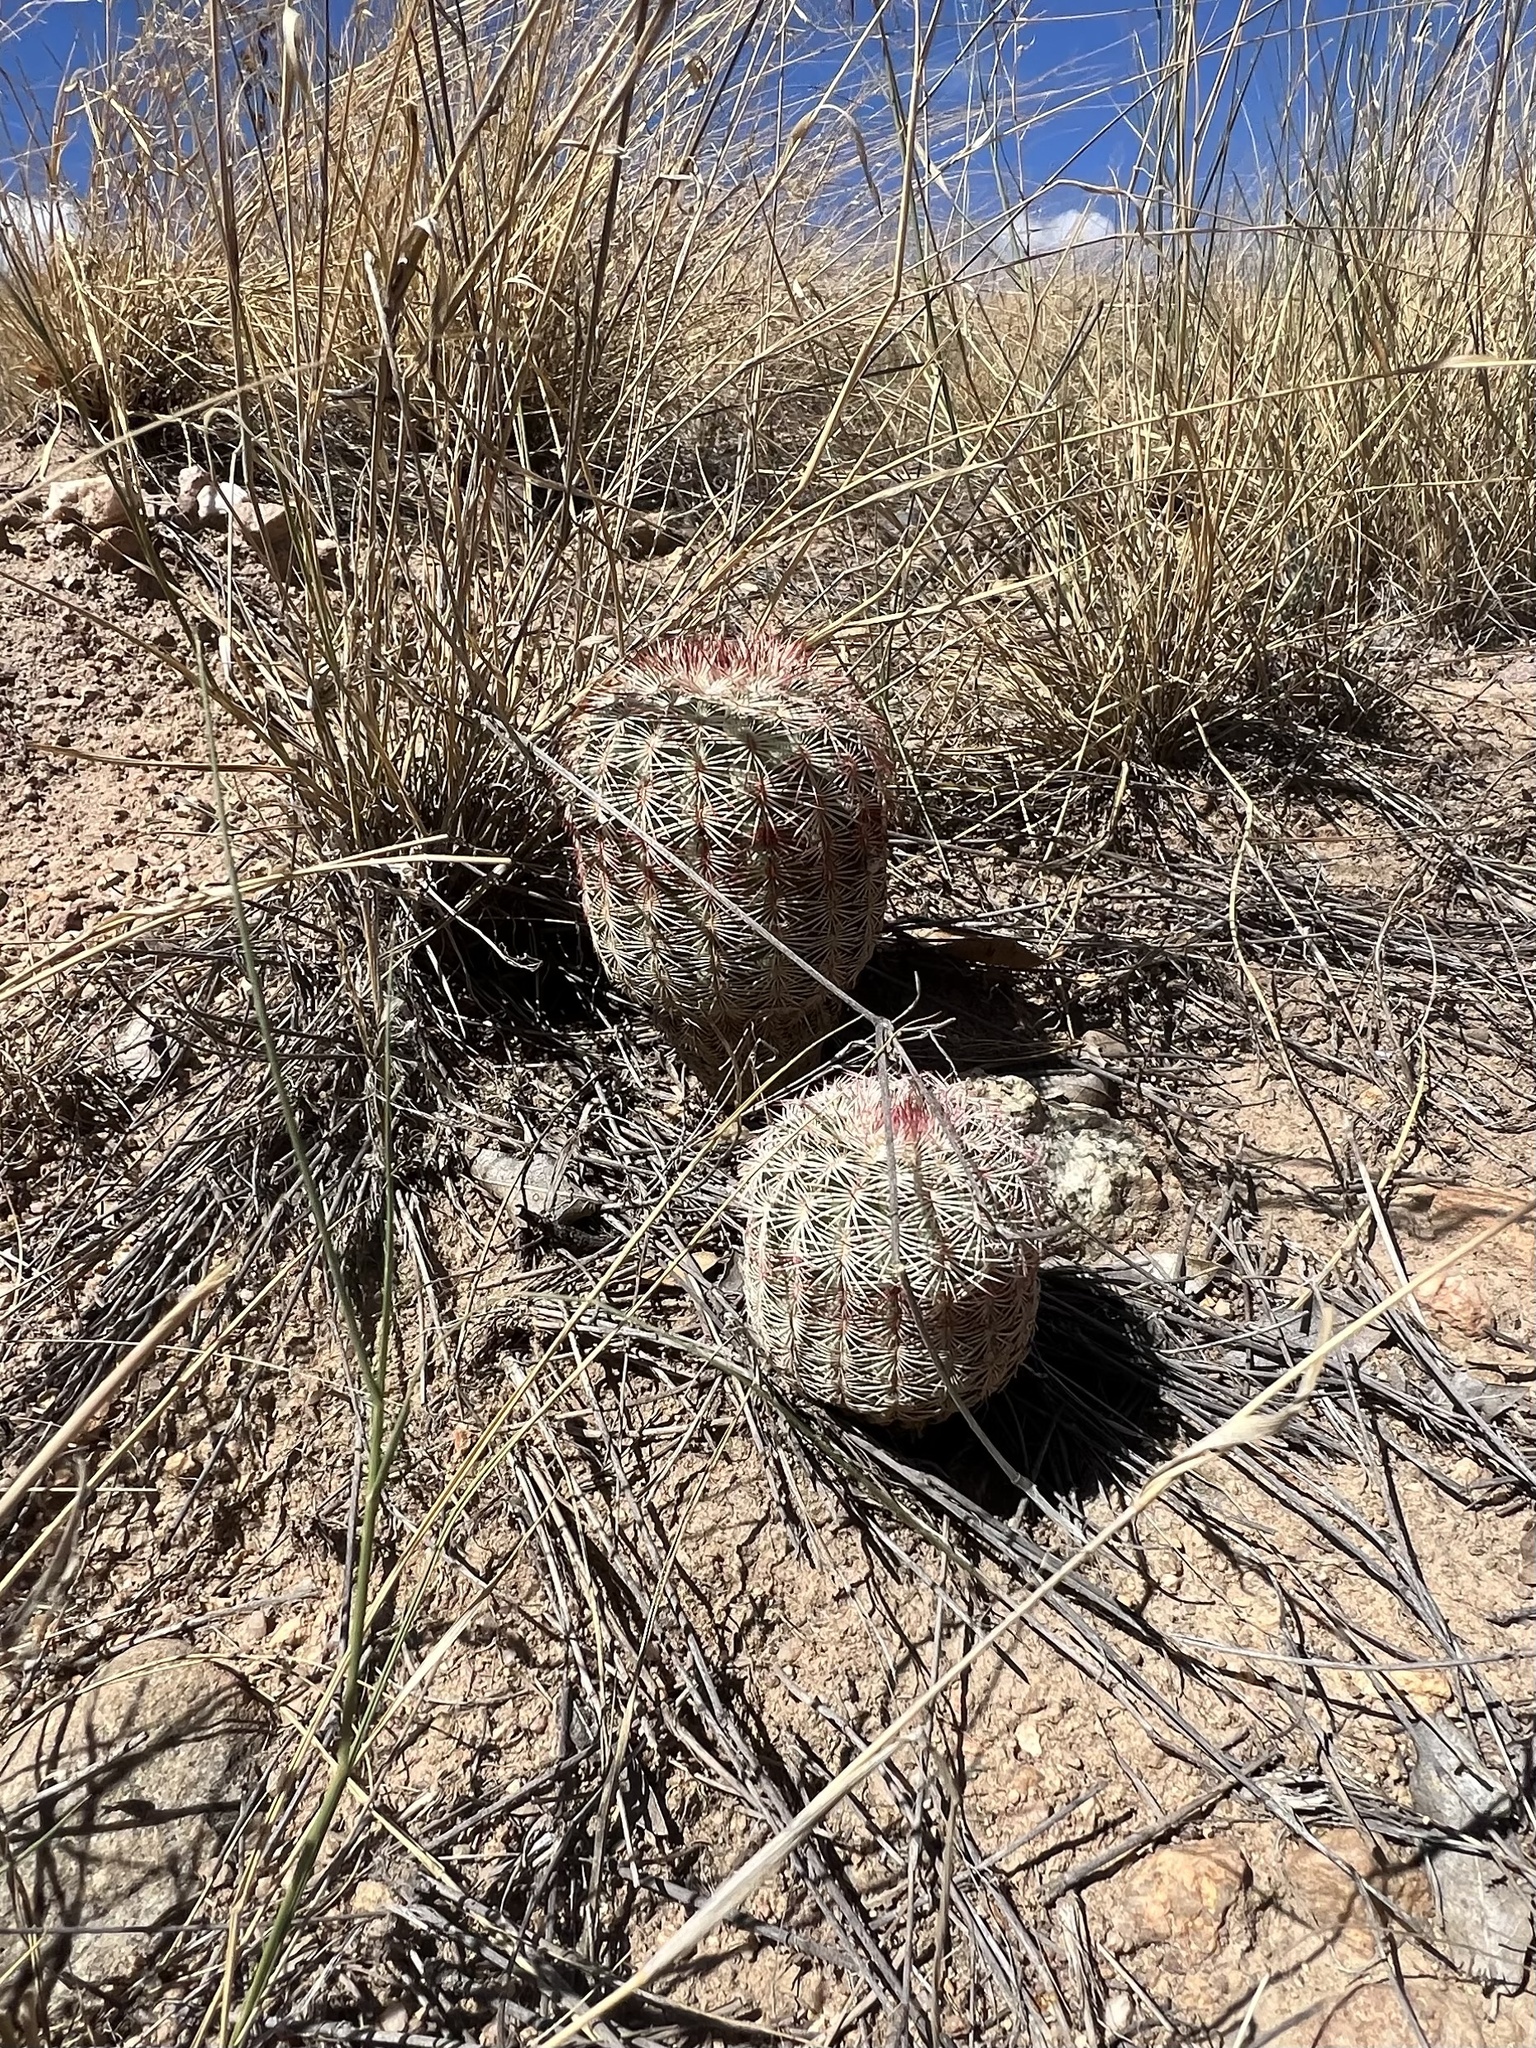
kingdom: Plantae
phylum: Tracheophyta
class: Magnoliopsida
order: Caryophyllales
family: Cactaceae
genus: Echinocereus
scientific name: Echinocereus rigidissimus
